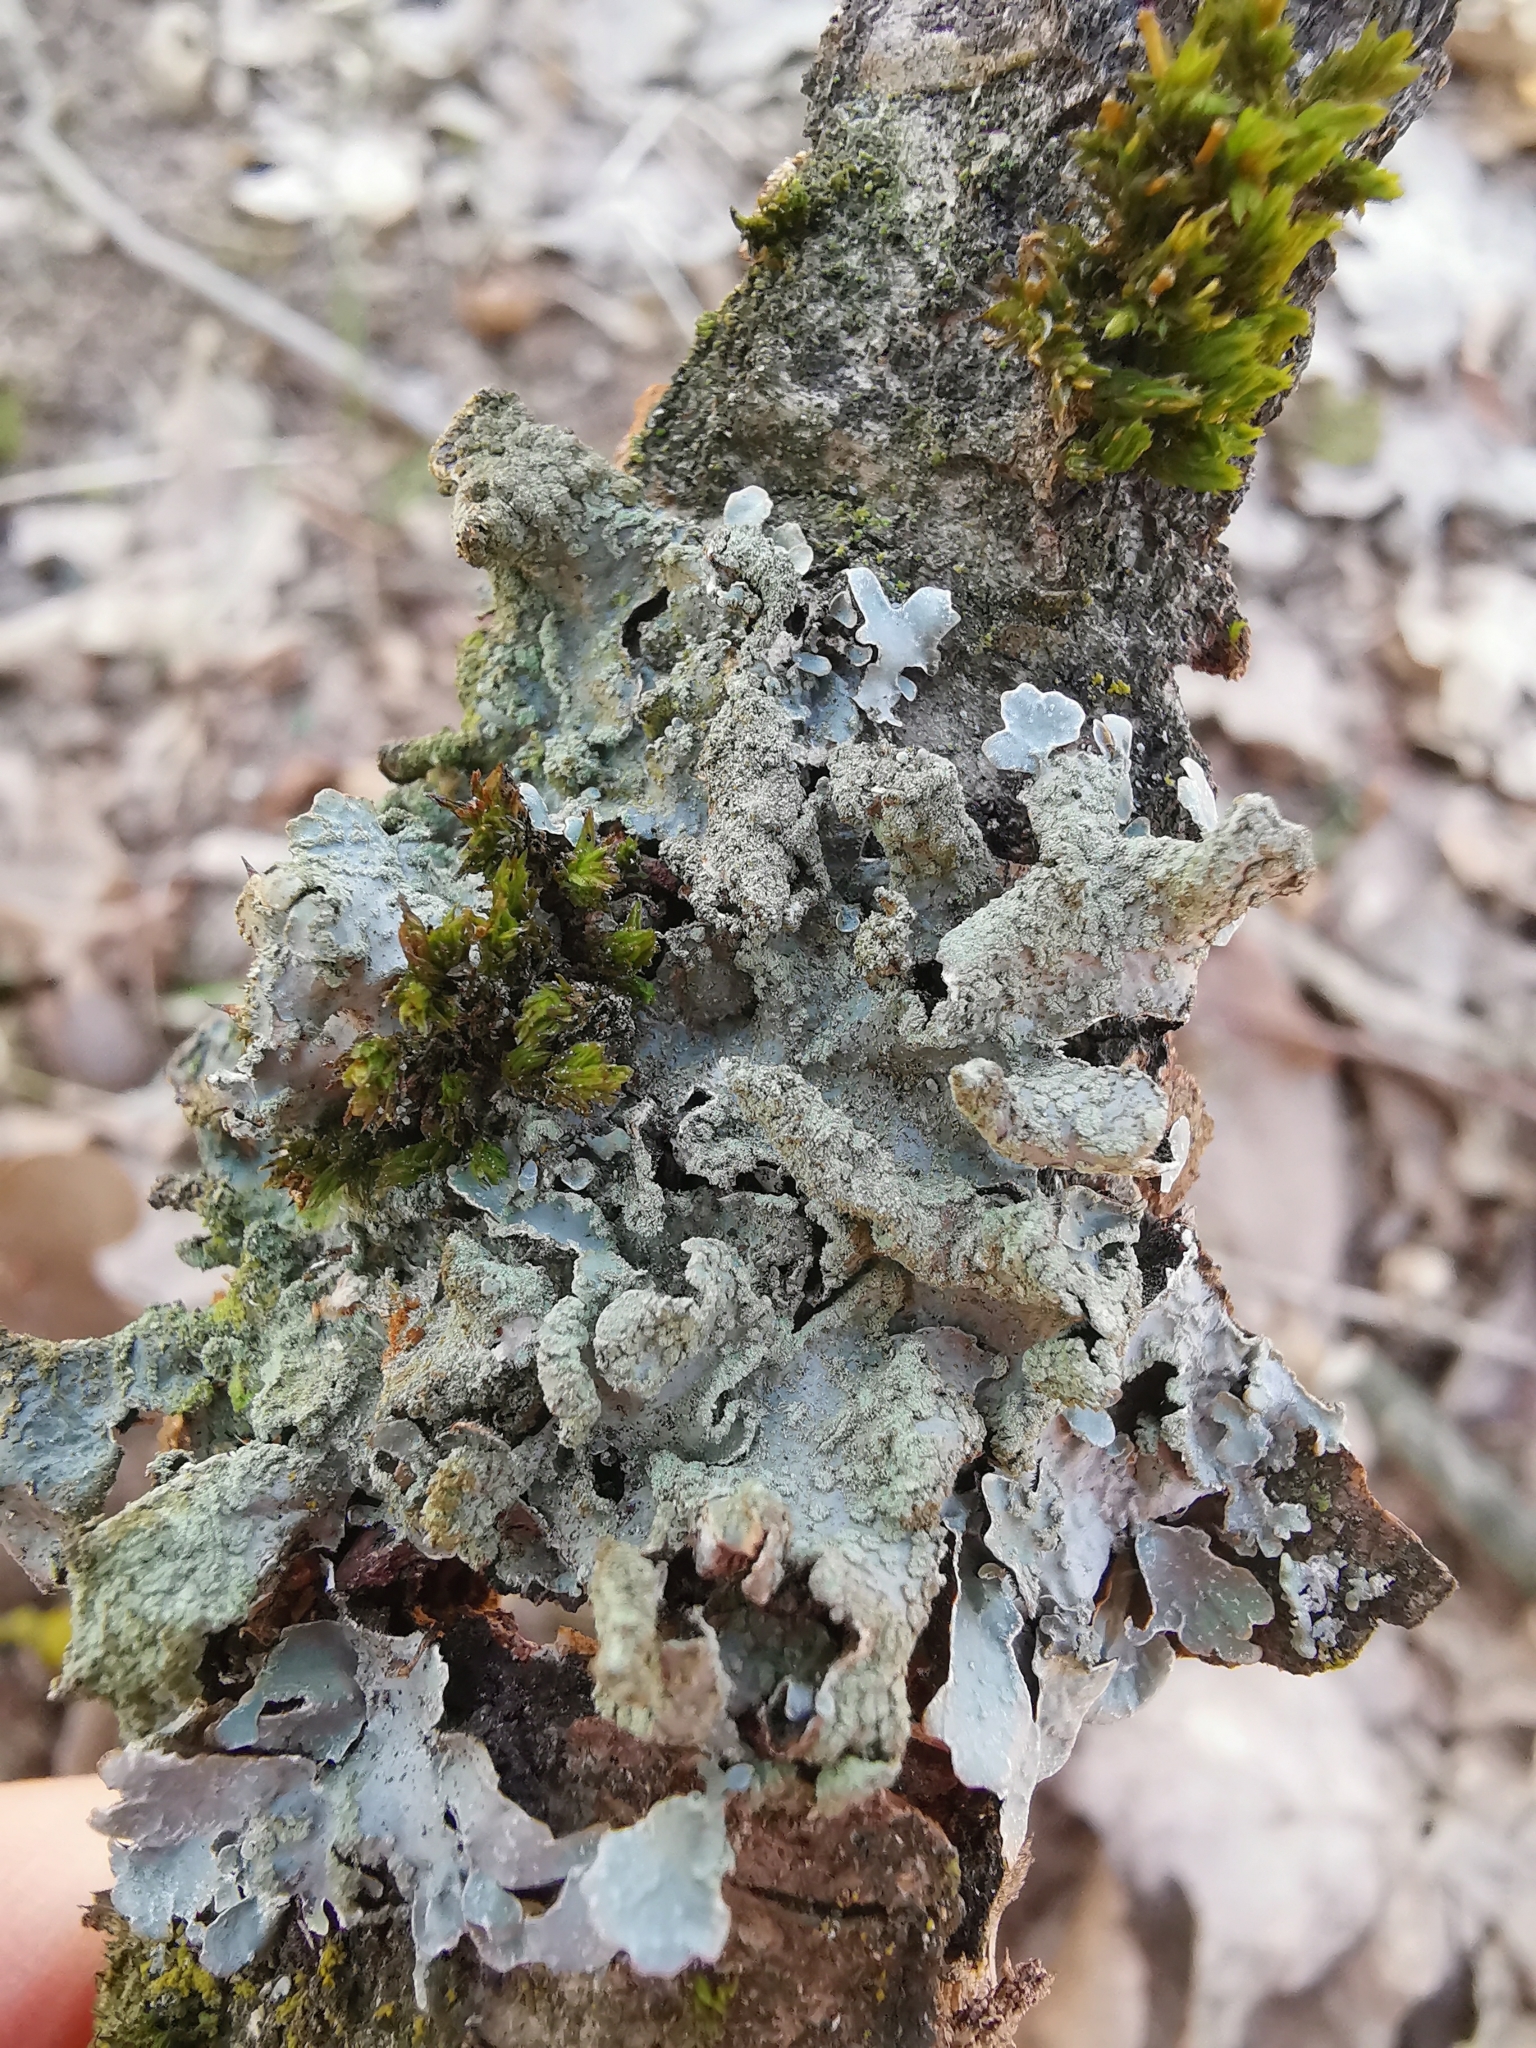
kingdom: Fungi
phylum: Ascomycota
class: Lecanoromycetes
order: Lecanorales
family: Parmeliaceae
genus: Parmelia
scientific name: Parmelia sulcata
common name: Netted shield lichen
